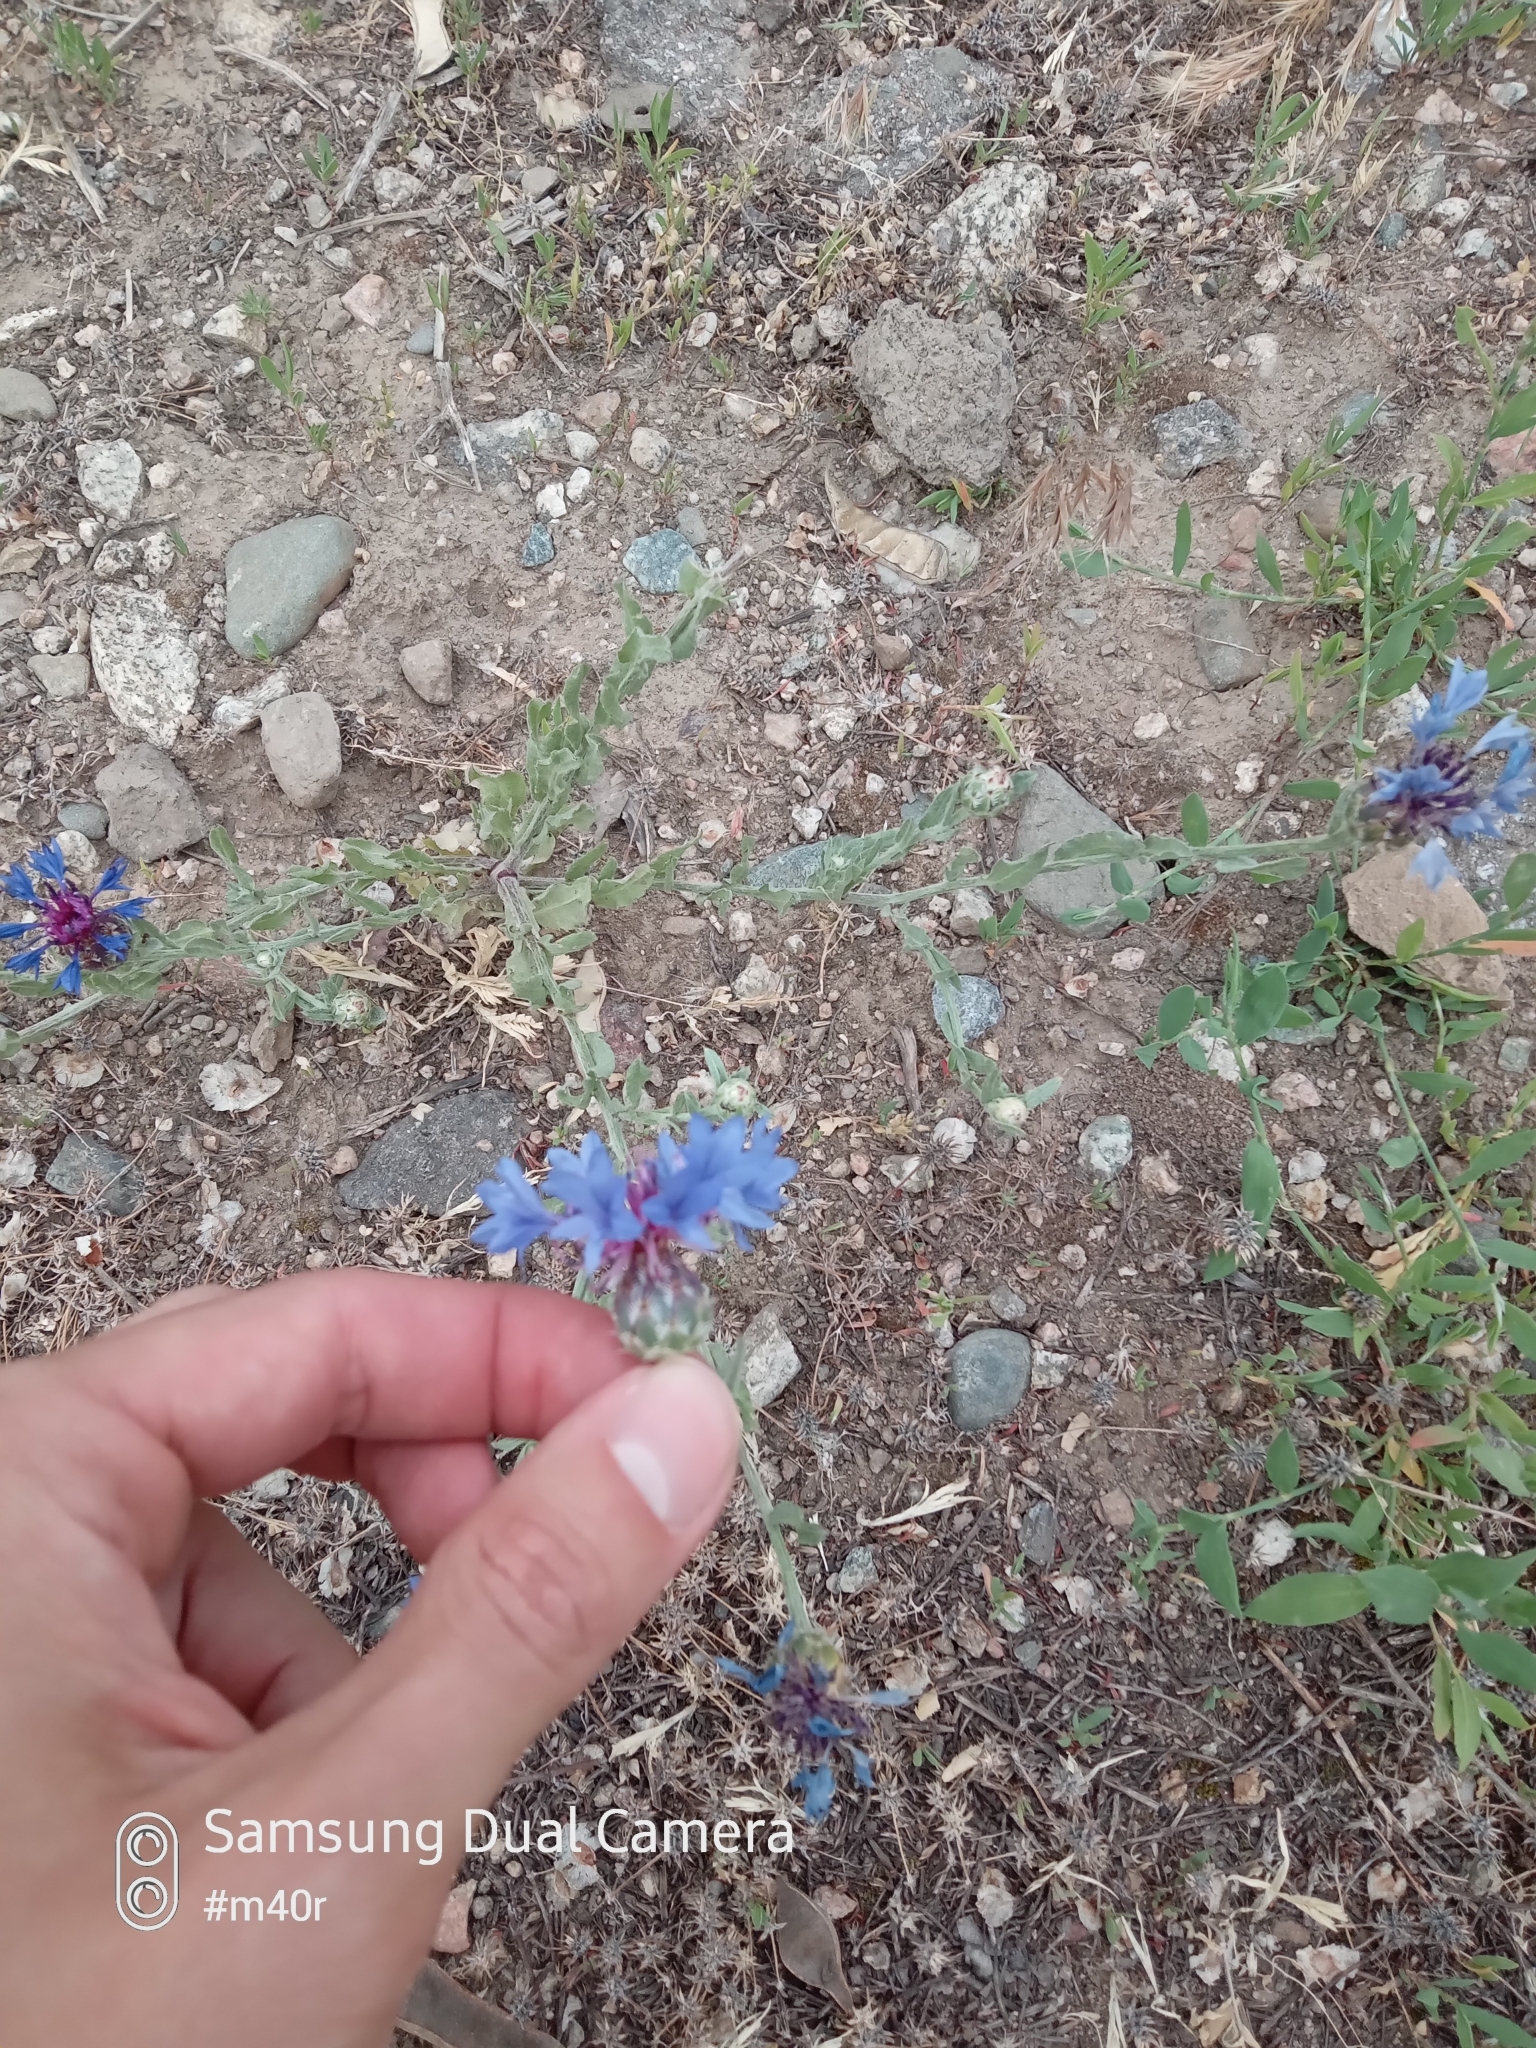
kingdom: Plantae
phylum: Tracheophyta
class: Magnoliopsida
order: Asterales
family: Asteraceae
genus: Centaurea
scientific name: Centaurea depressa
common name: Iranian knapweed
